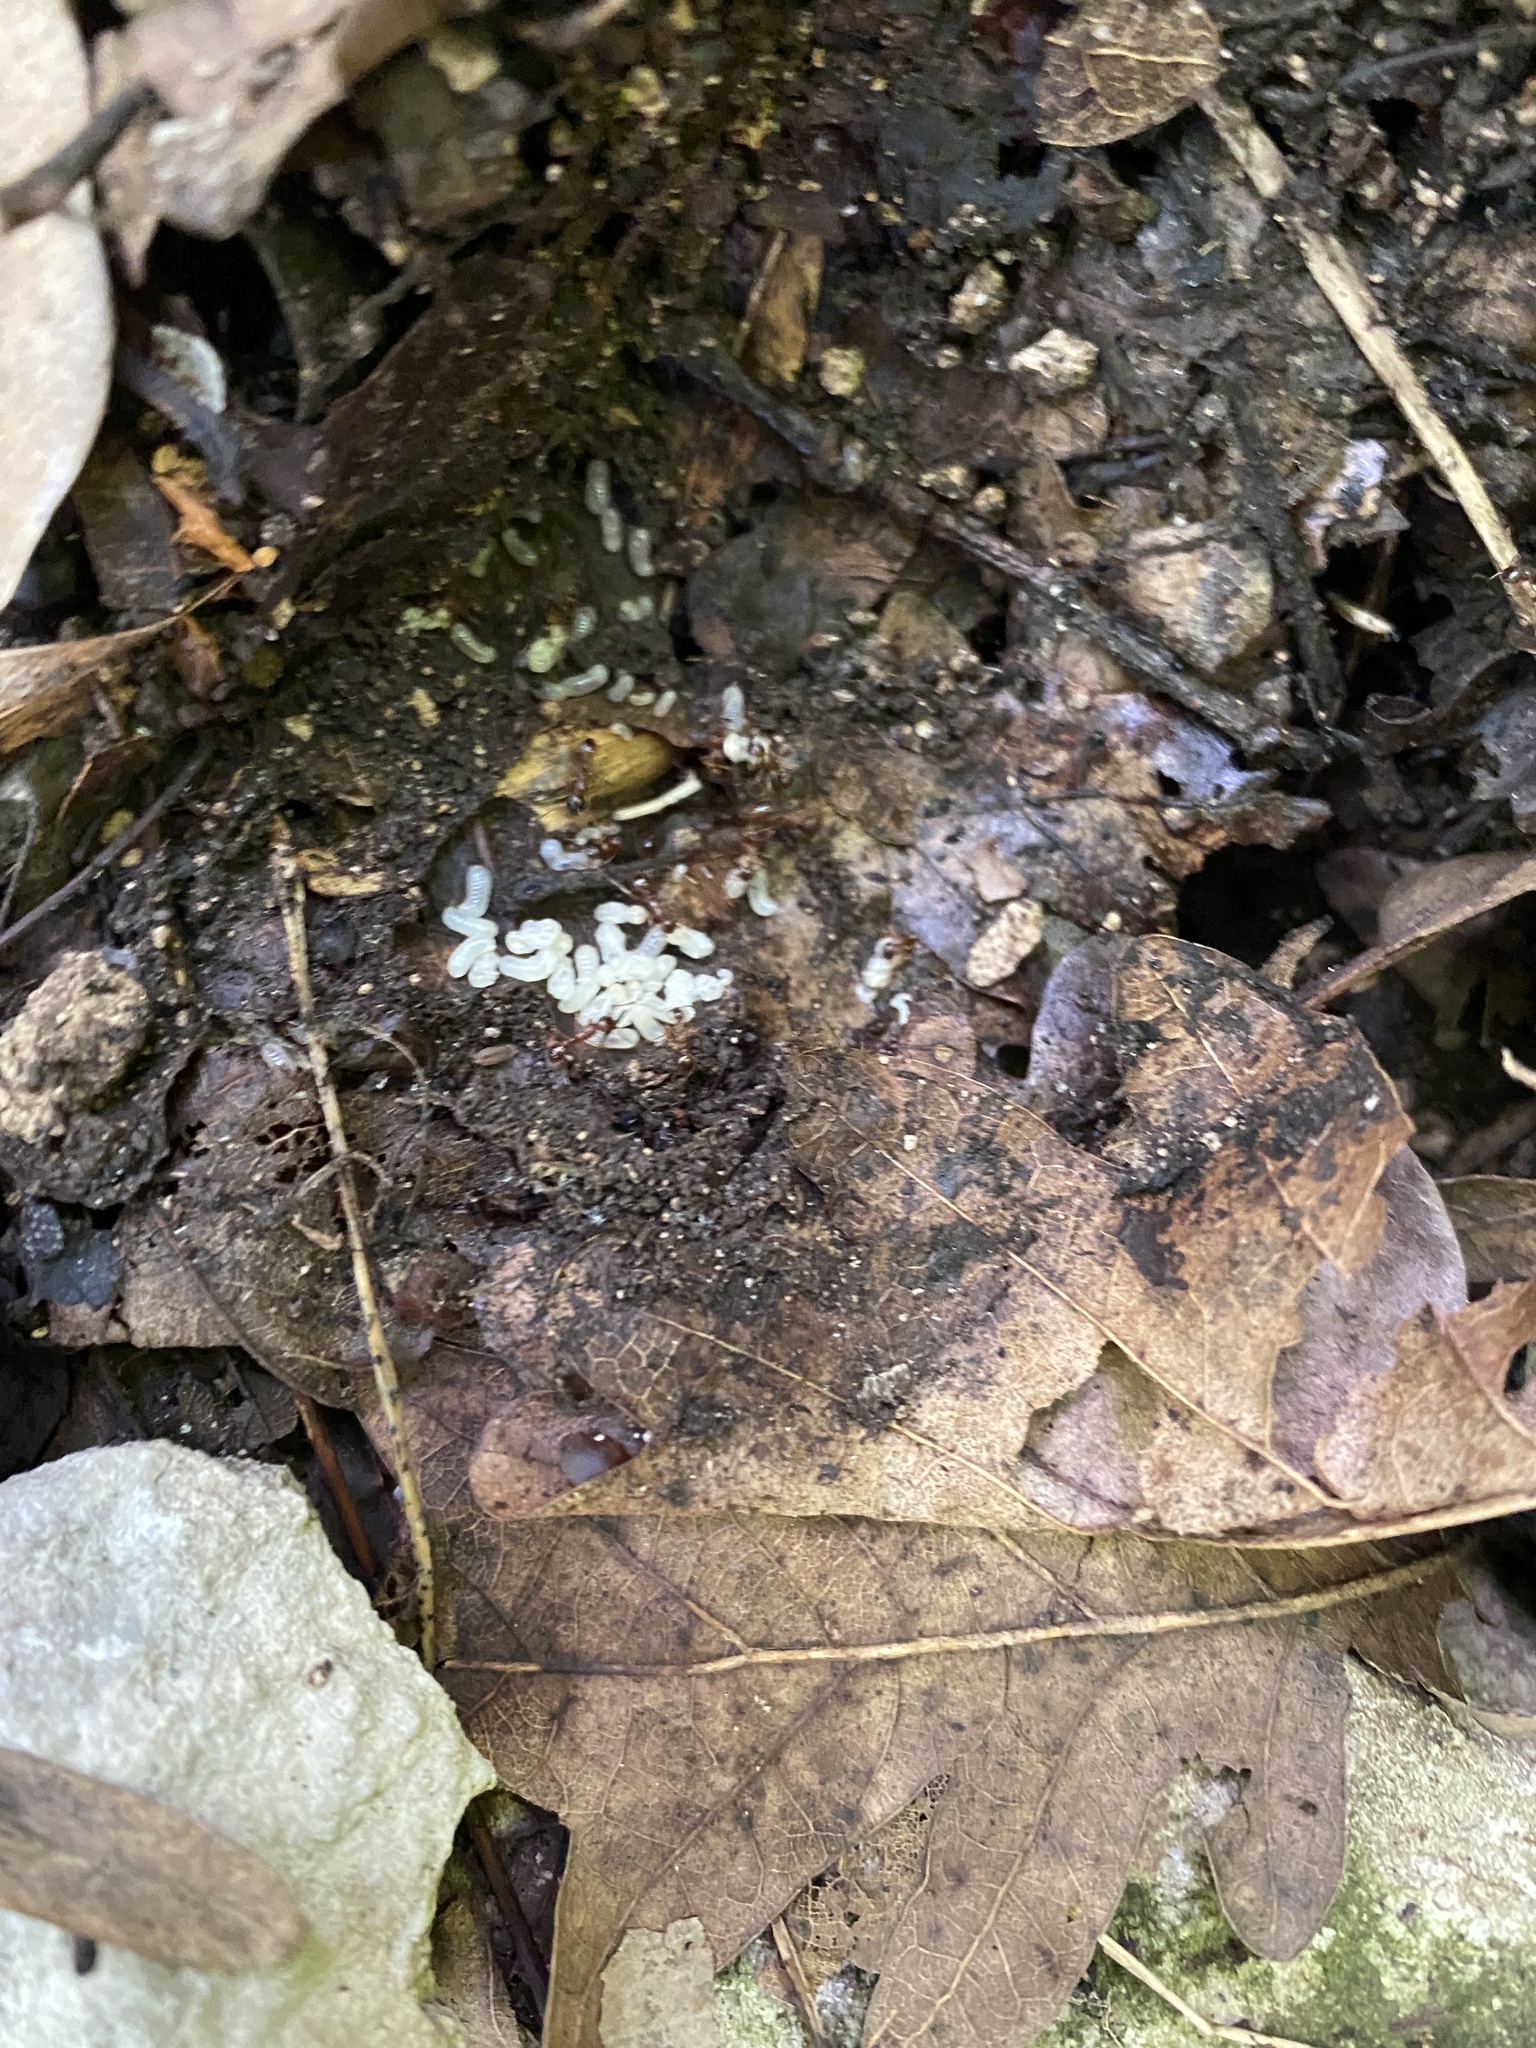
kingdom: Animalia
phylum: Arthropoda
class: Insecta
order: Hymenoptera
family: Formicidae
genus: Myrmica
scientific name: Myrmica
